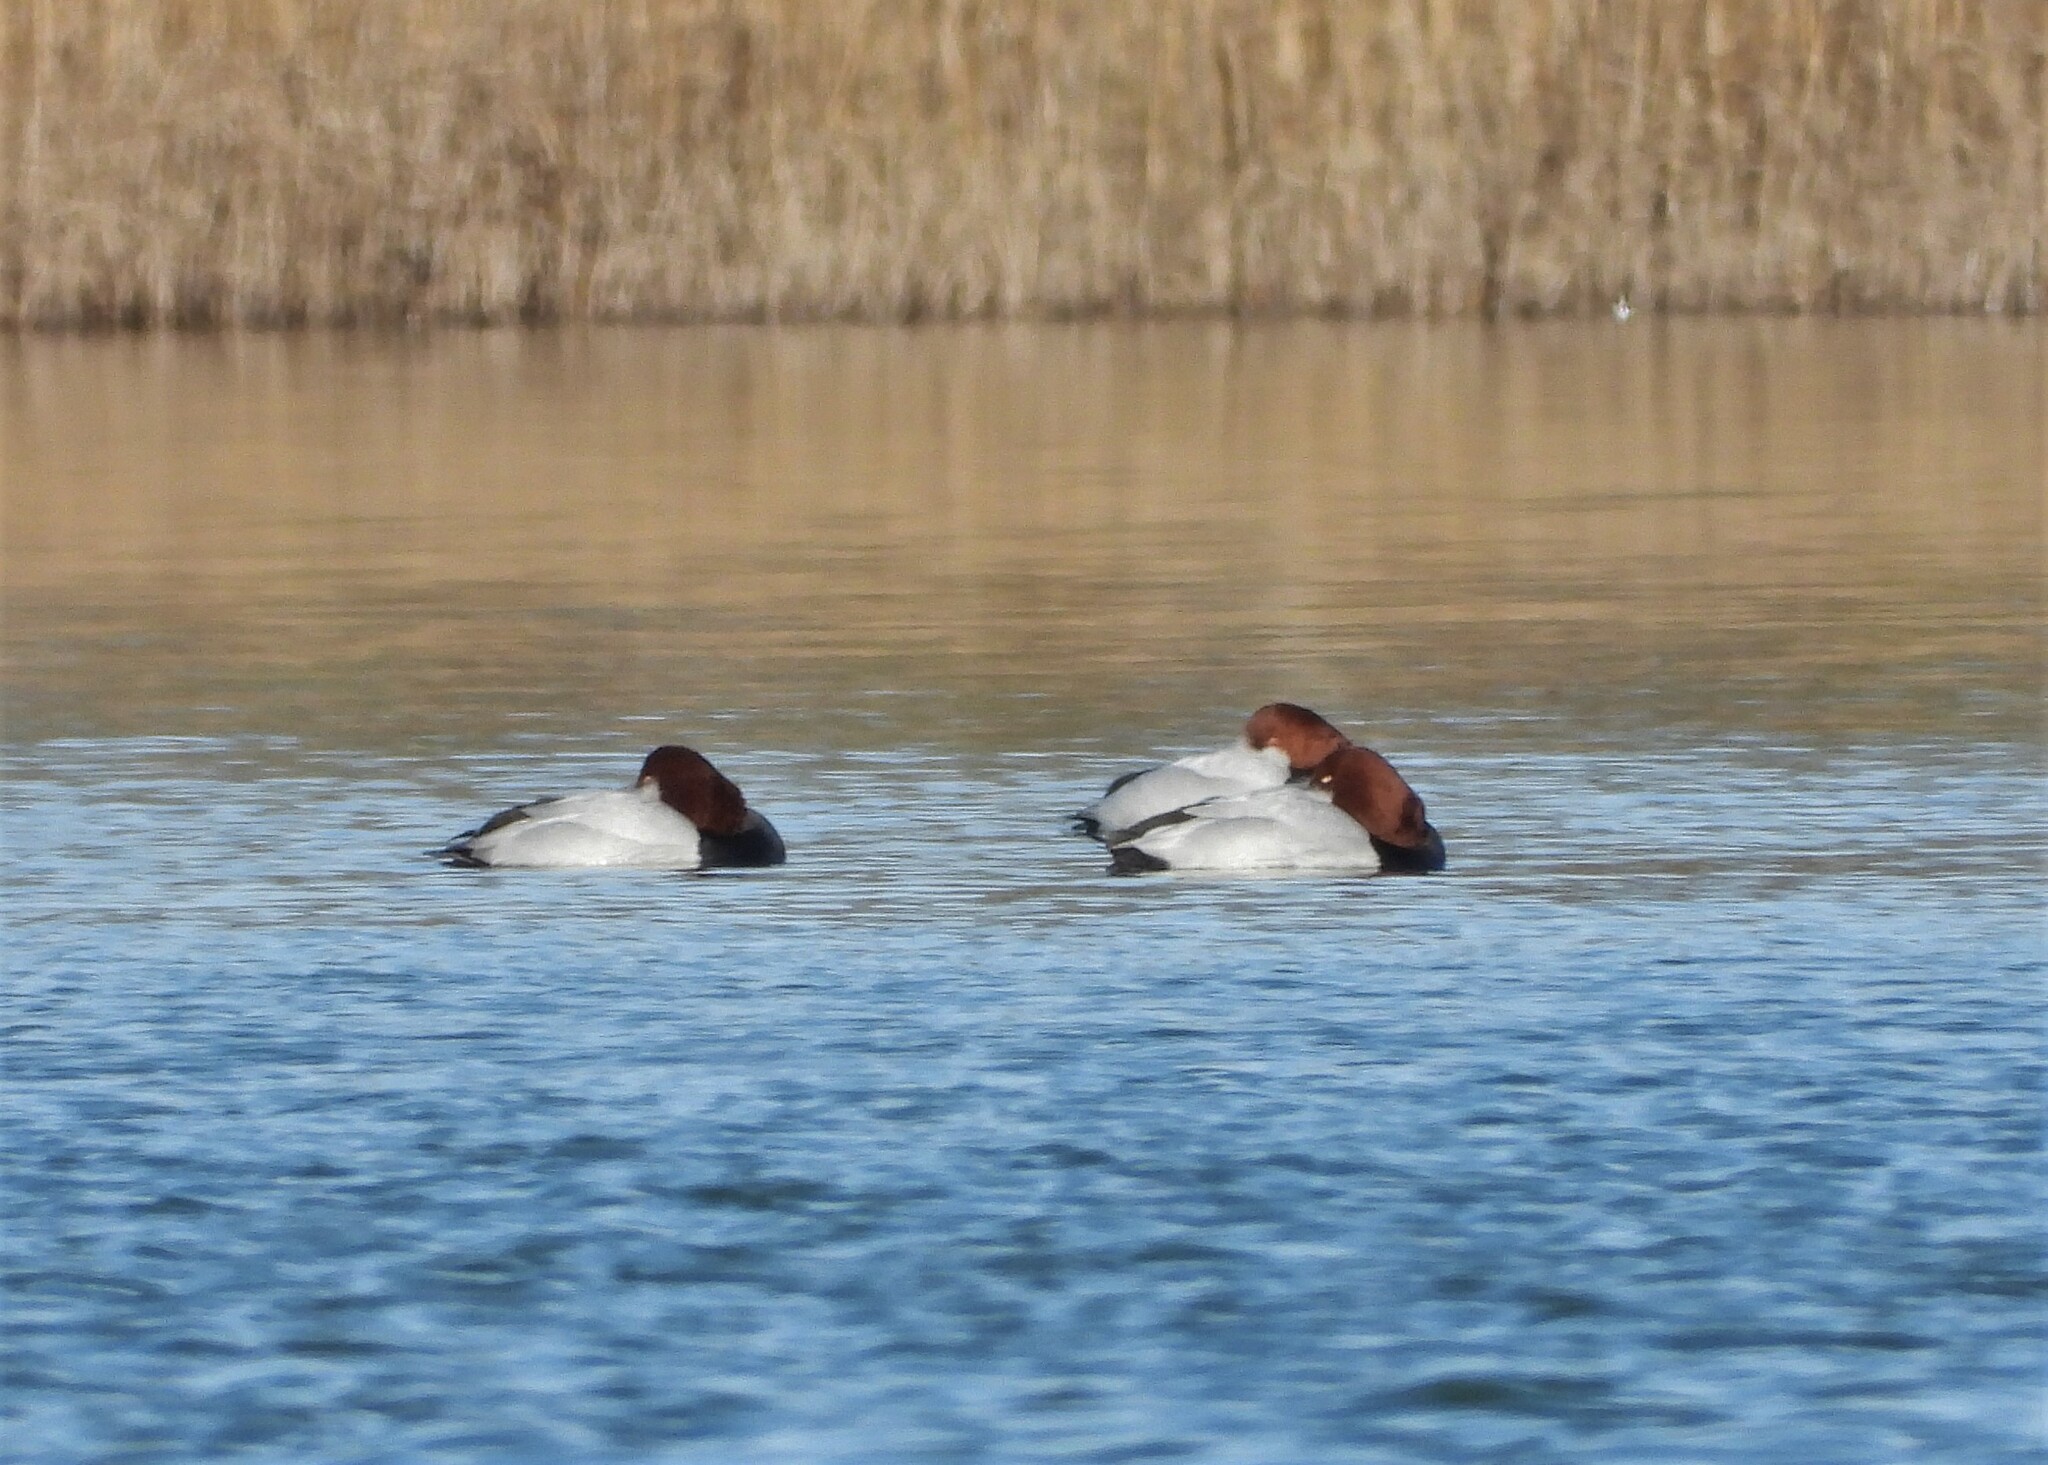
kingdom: Animalia
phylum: Chordata
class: Aves
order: Anseriformes
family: Anatidae
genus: Aythya
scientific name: Aythya ferina
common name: Common pochard
